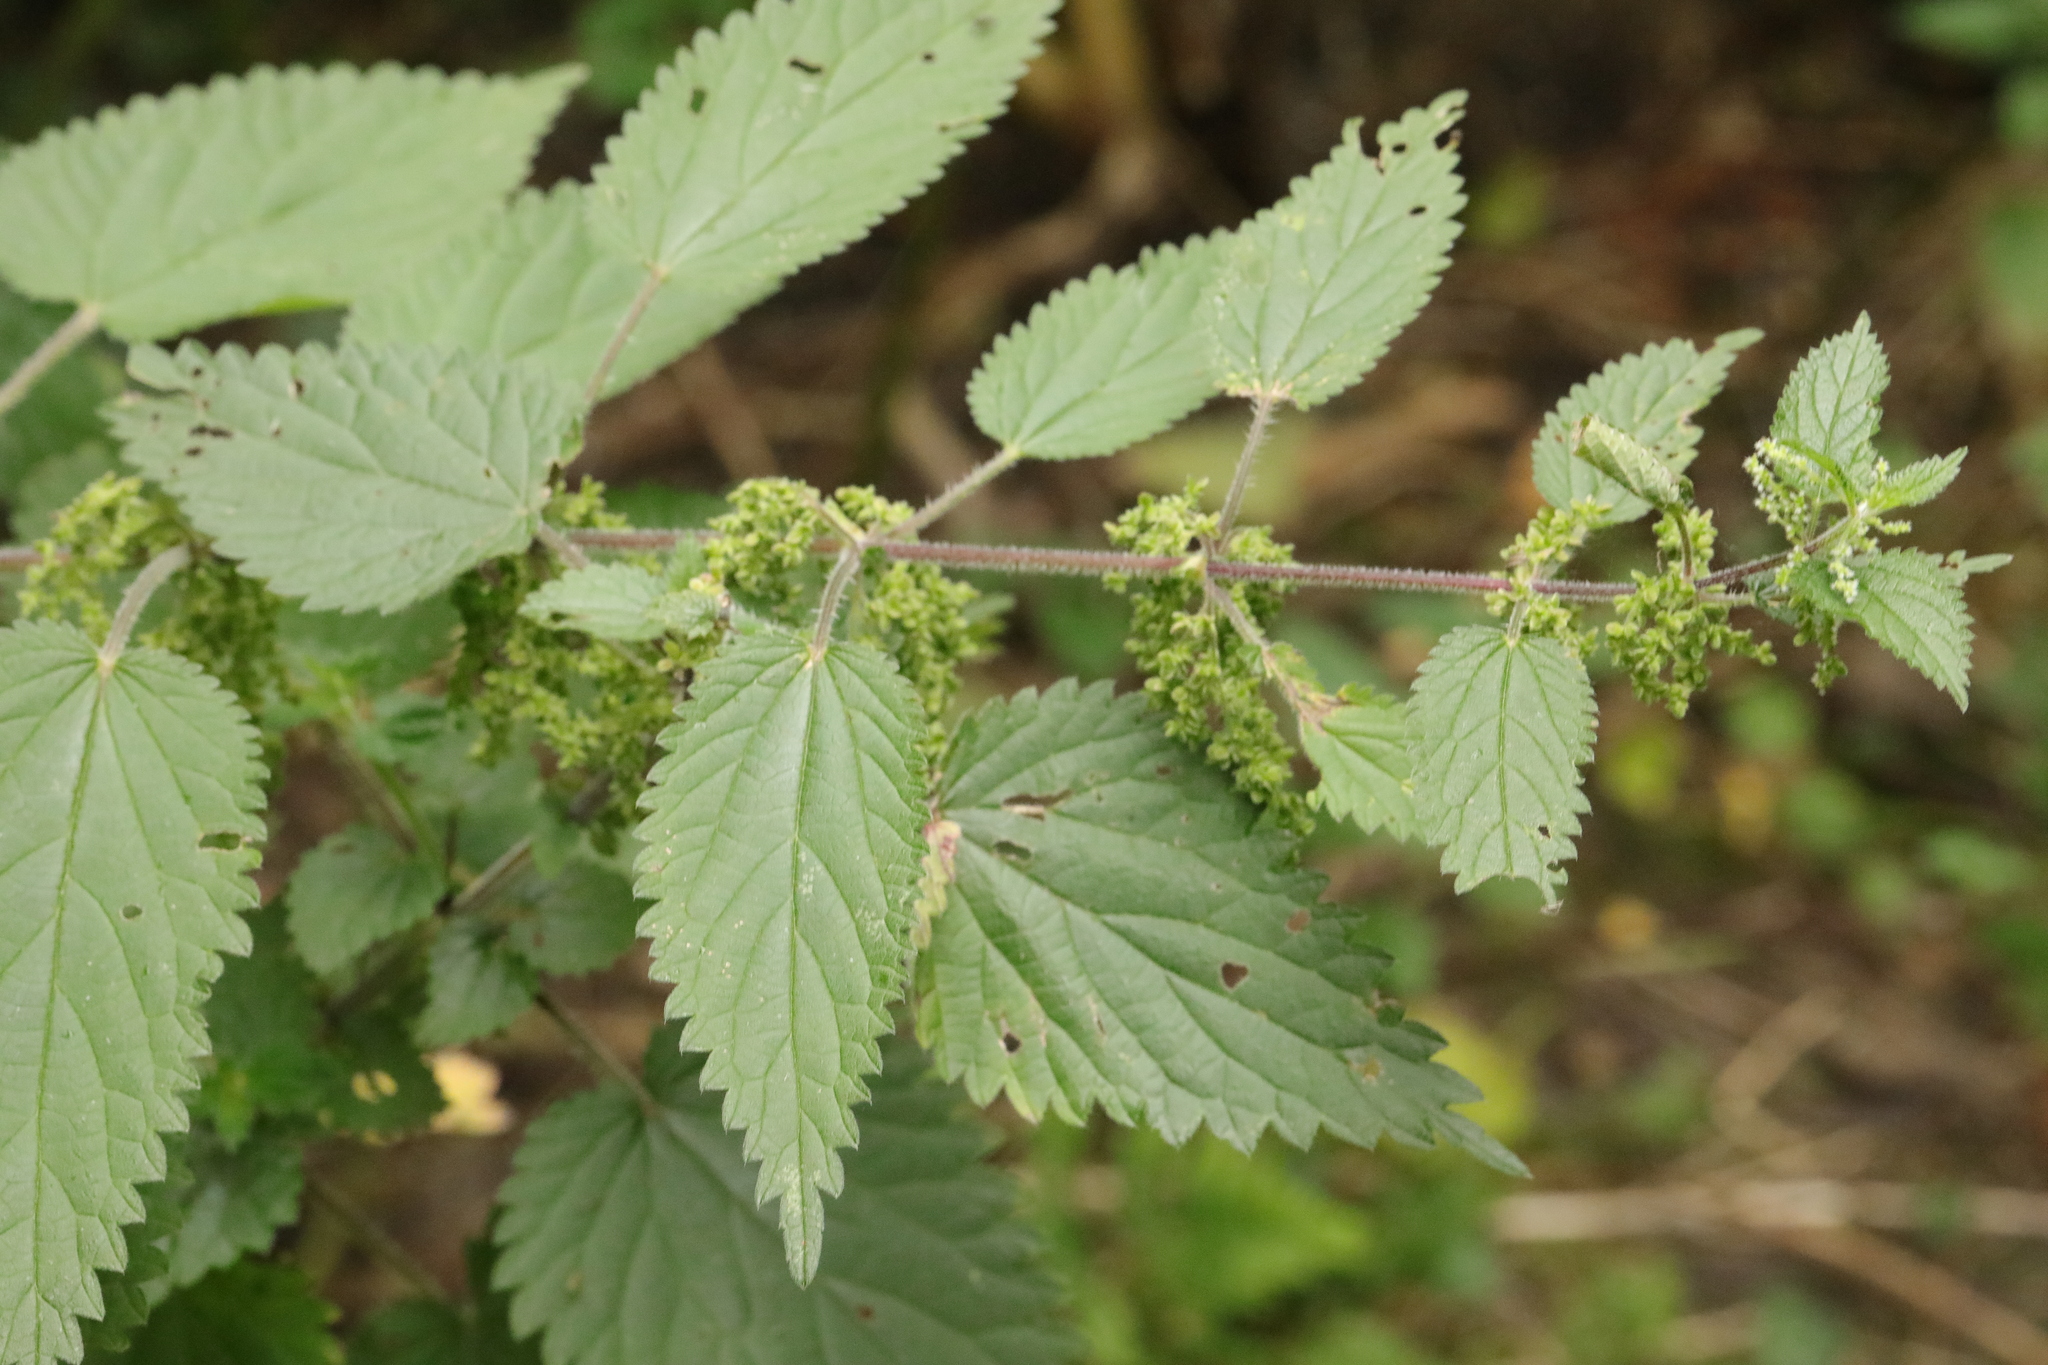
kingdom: Plantae
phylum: Tracheophyta
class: Magnoliopsida
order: Rosales
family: Urticaceae
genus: Urtica
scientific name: Urtica dioica
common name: Common nettle
